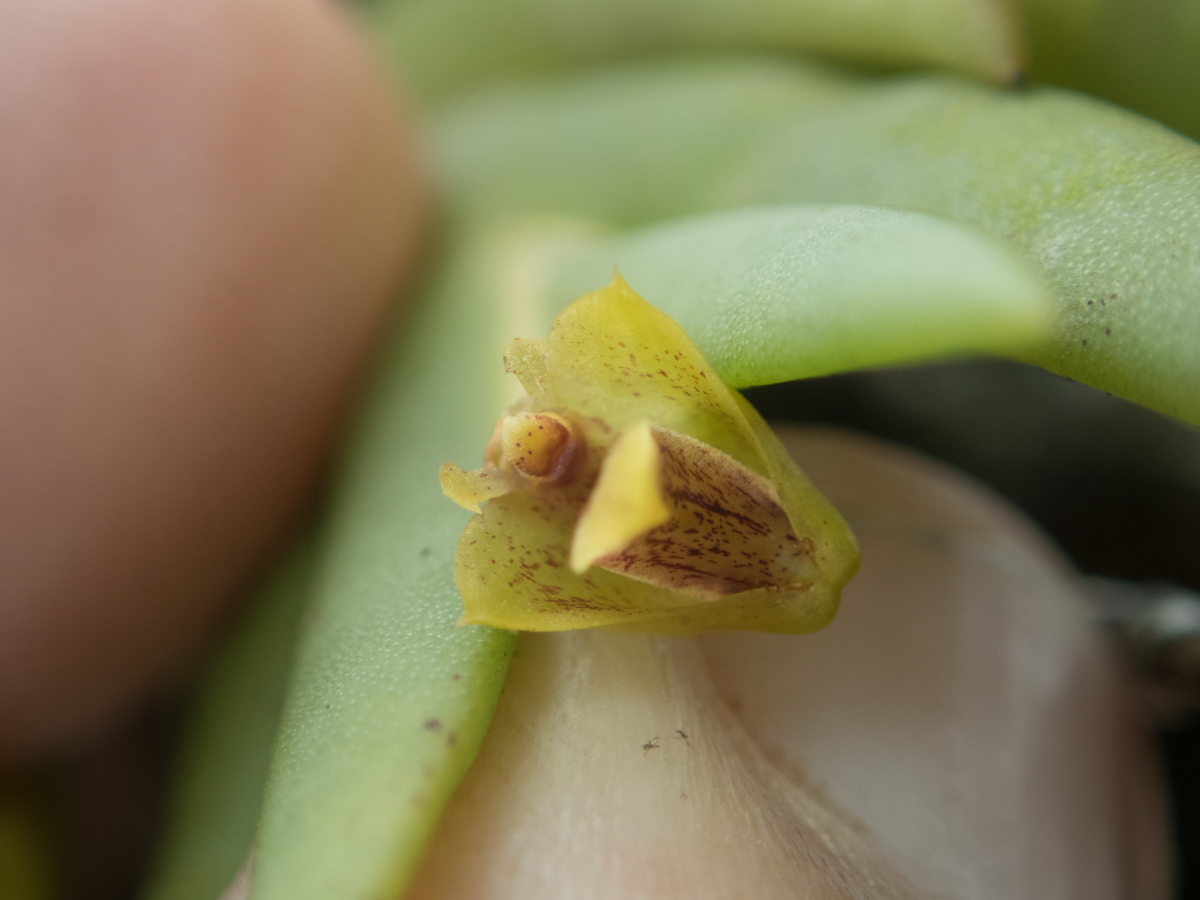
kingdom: Plantae
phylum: Tracheophyta
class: Liliopsida
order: Asparagales
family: Orchidaceae
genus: Oxystophyllum
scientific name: Oxystophyllum carnosum
